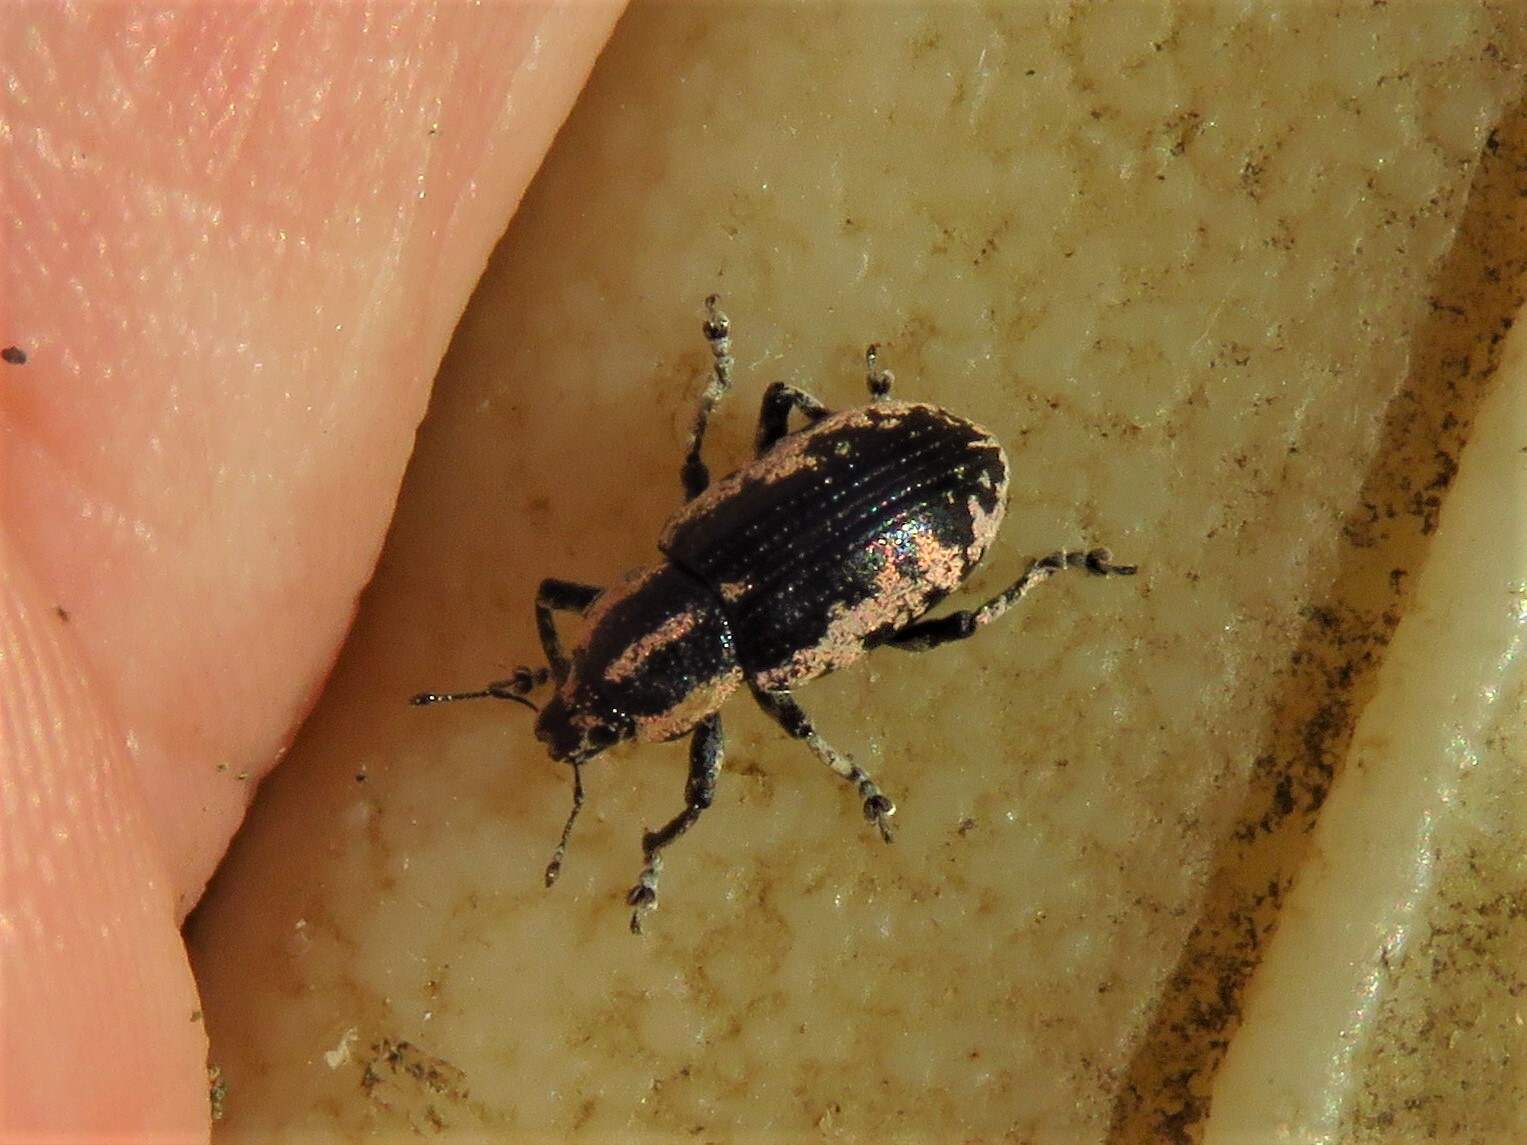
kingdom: Animalia
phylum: Arthropoda
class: Insecta
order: Coleoptera
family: Curculionidae
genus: Eudiagogus
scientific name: Eudiagogus rosenschoeldi
